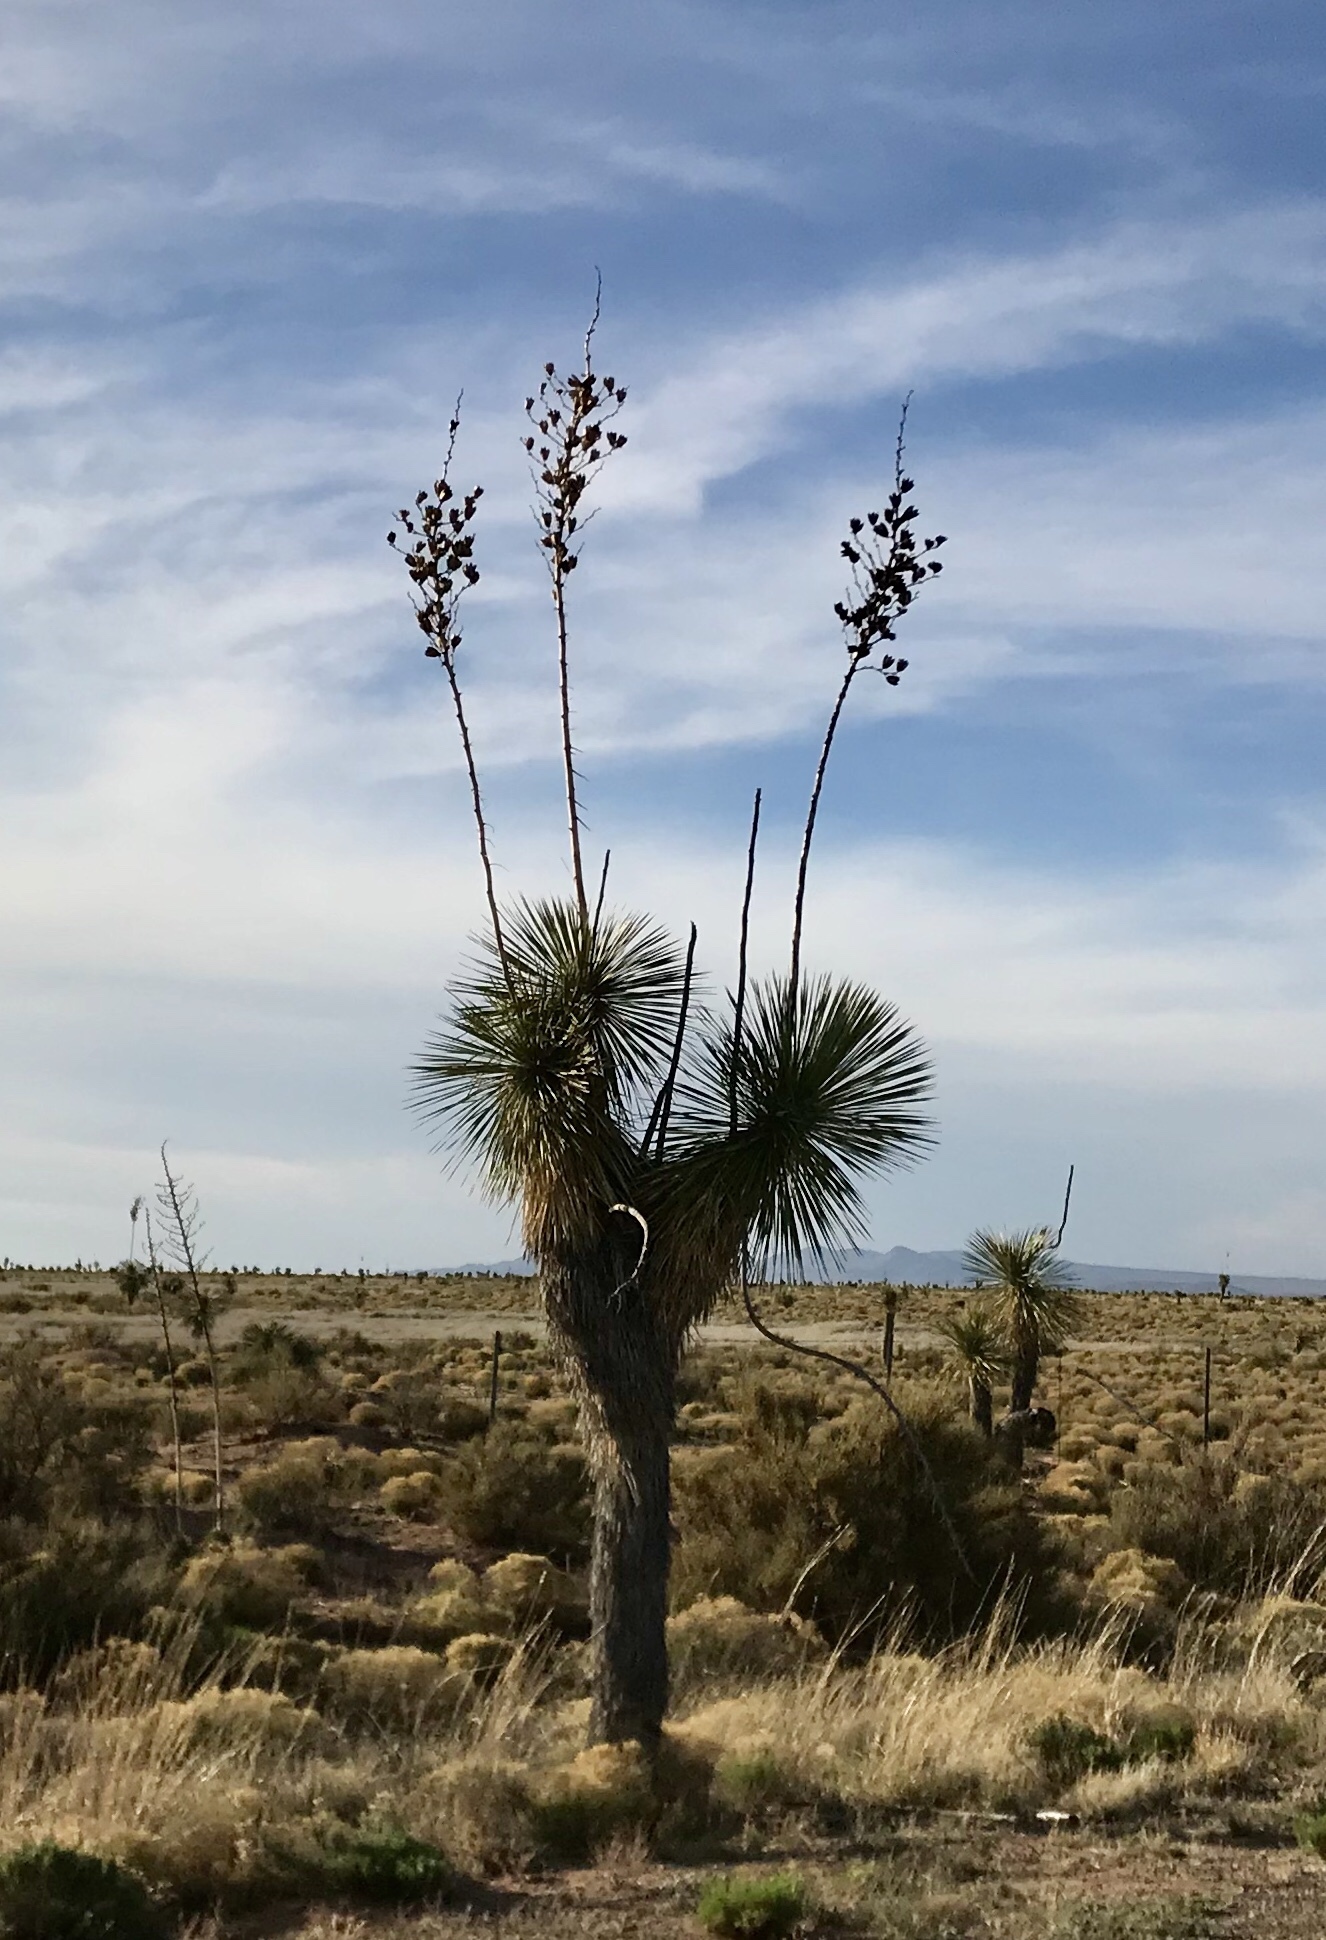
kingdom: Plantae
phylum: Tracheophyta
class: Liliopsida
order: Asparagales
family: Asparagaceae
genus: Yucca
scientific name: Yucca elata
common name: Palmella
